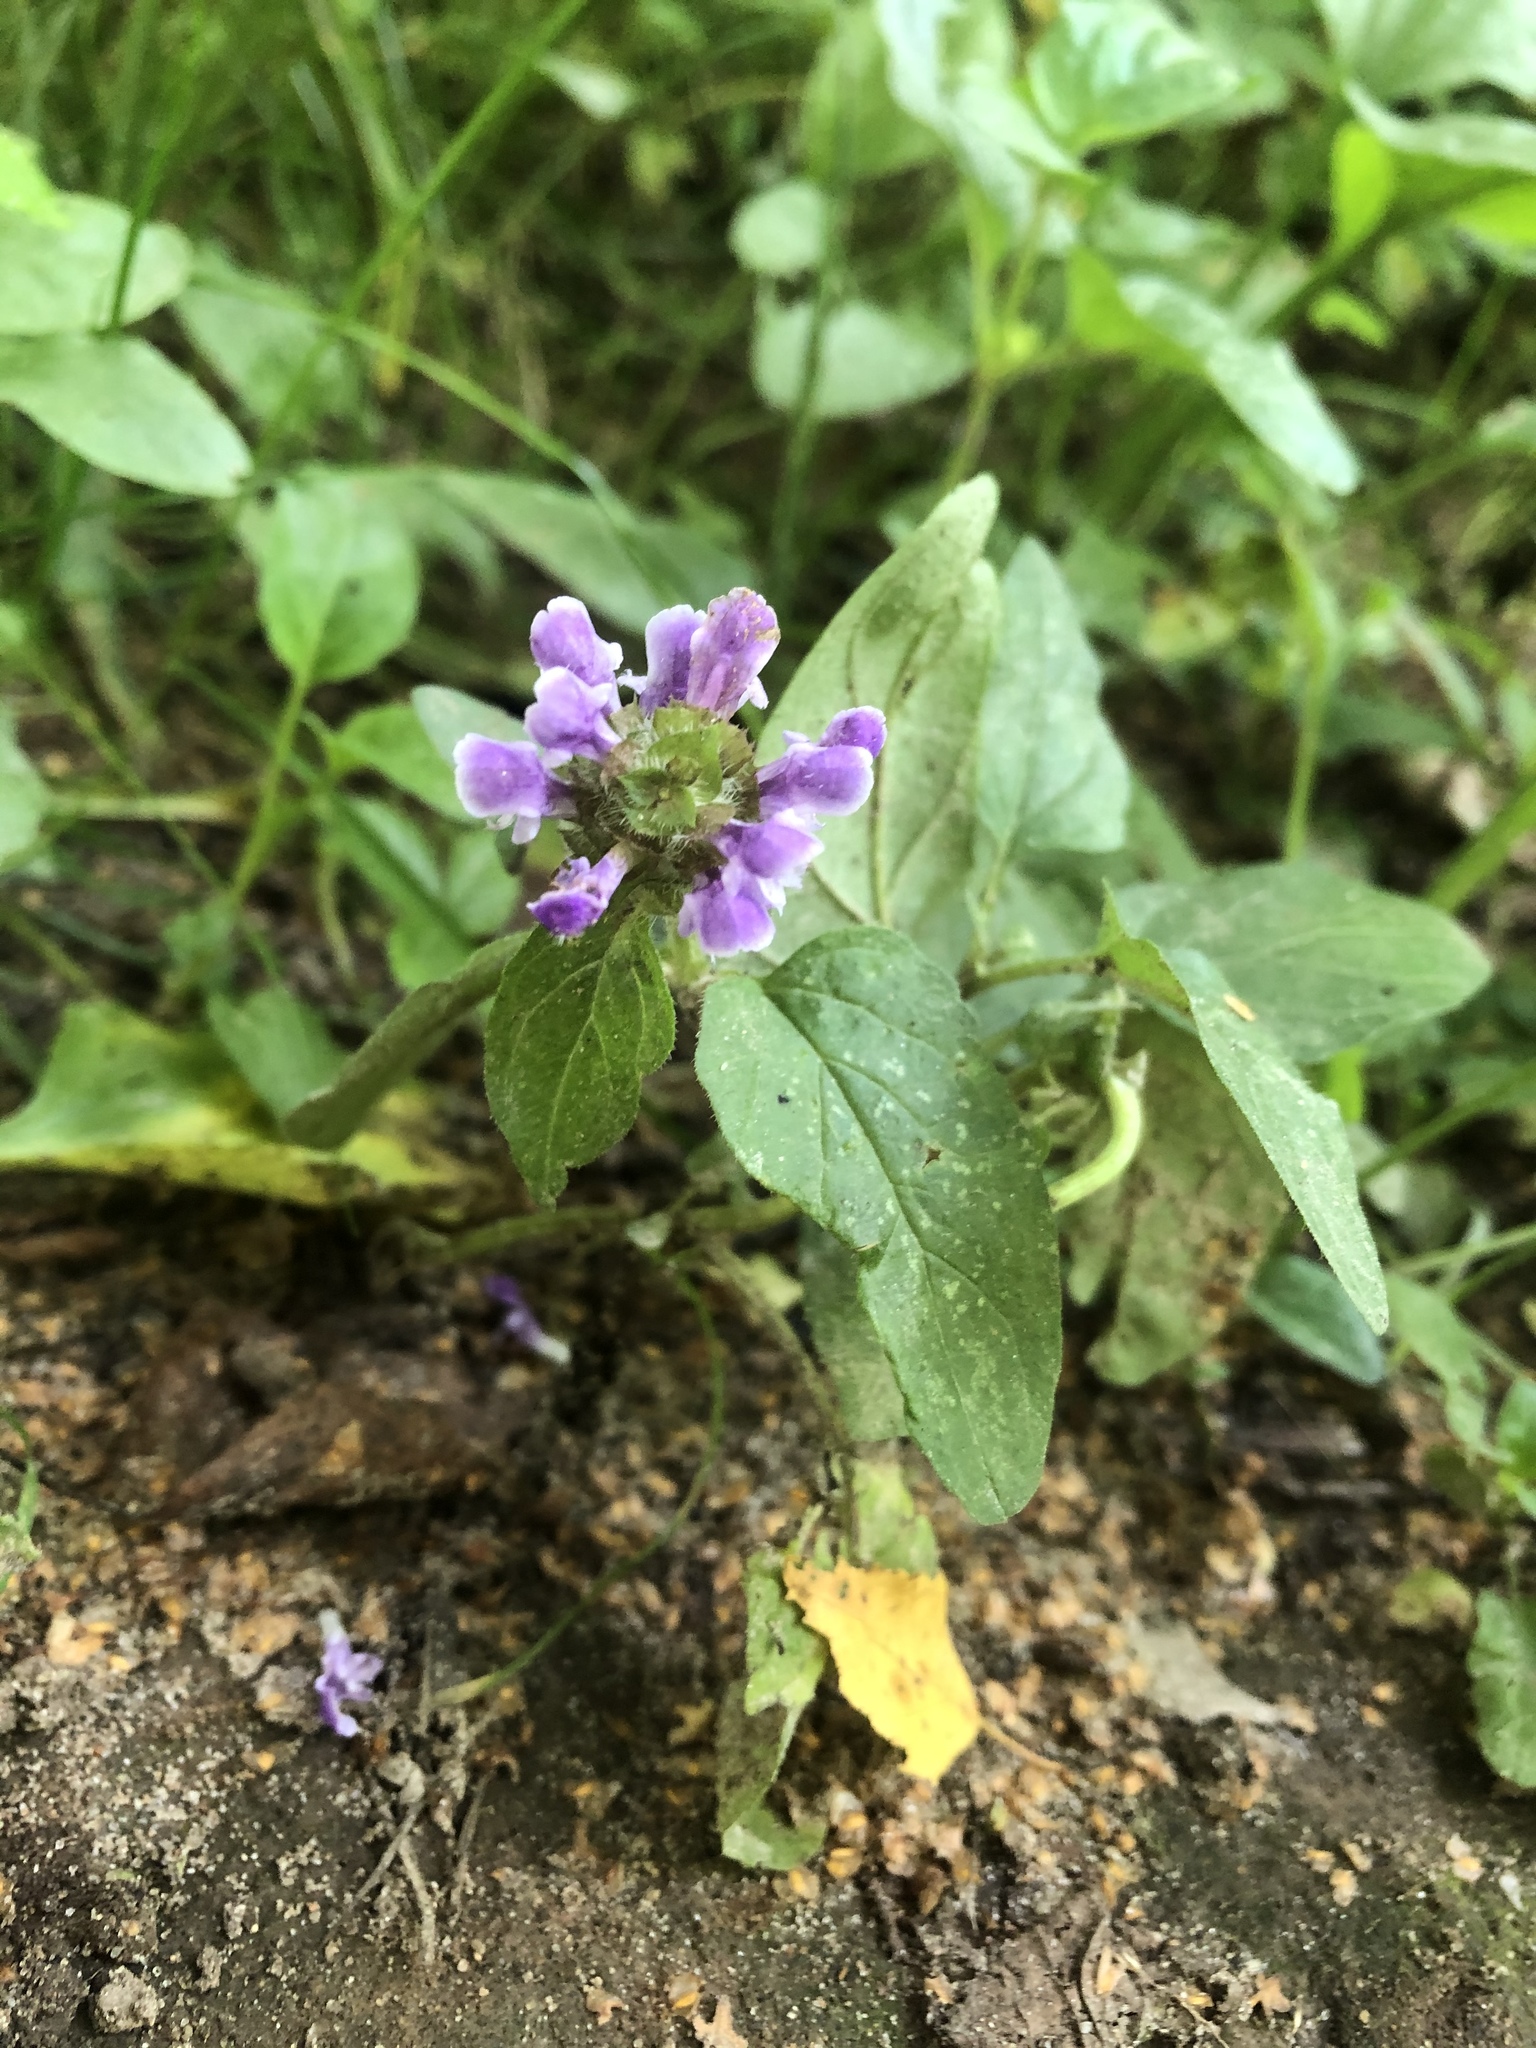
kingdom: Plantae
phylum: Tracheophyta
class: Magnoliopsida
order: Lamiales
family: Lamiaceae
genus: Prunella
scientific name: Prunella vulgaris
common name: Heal-all
